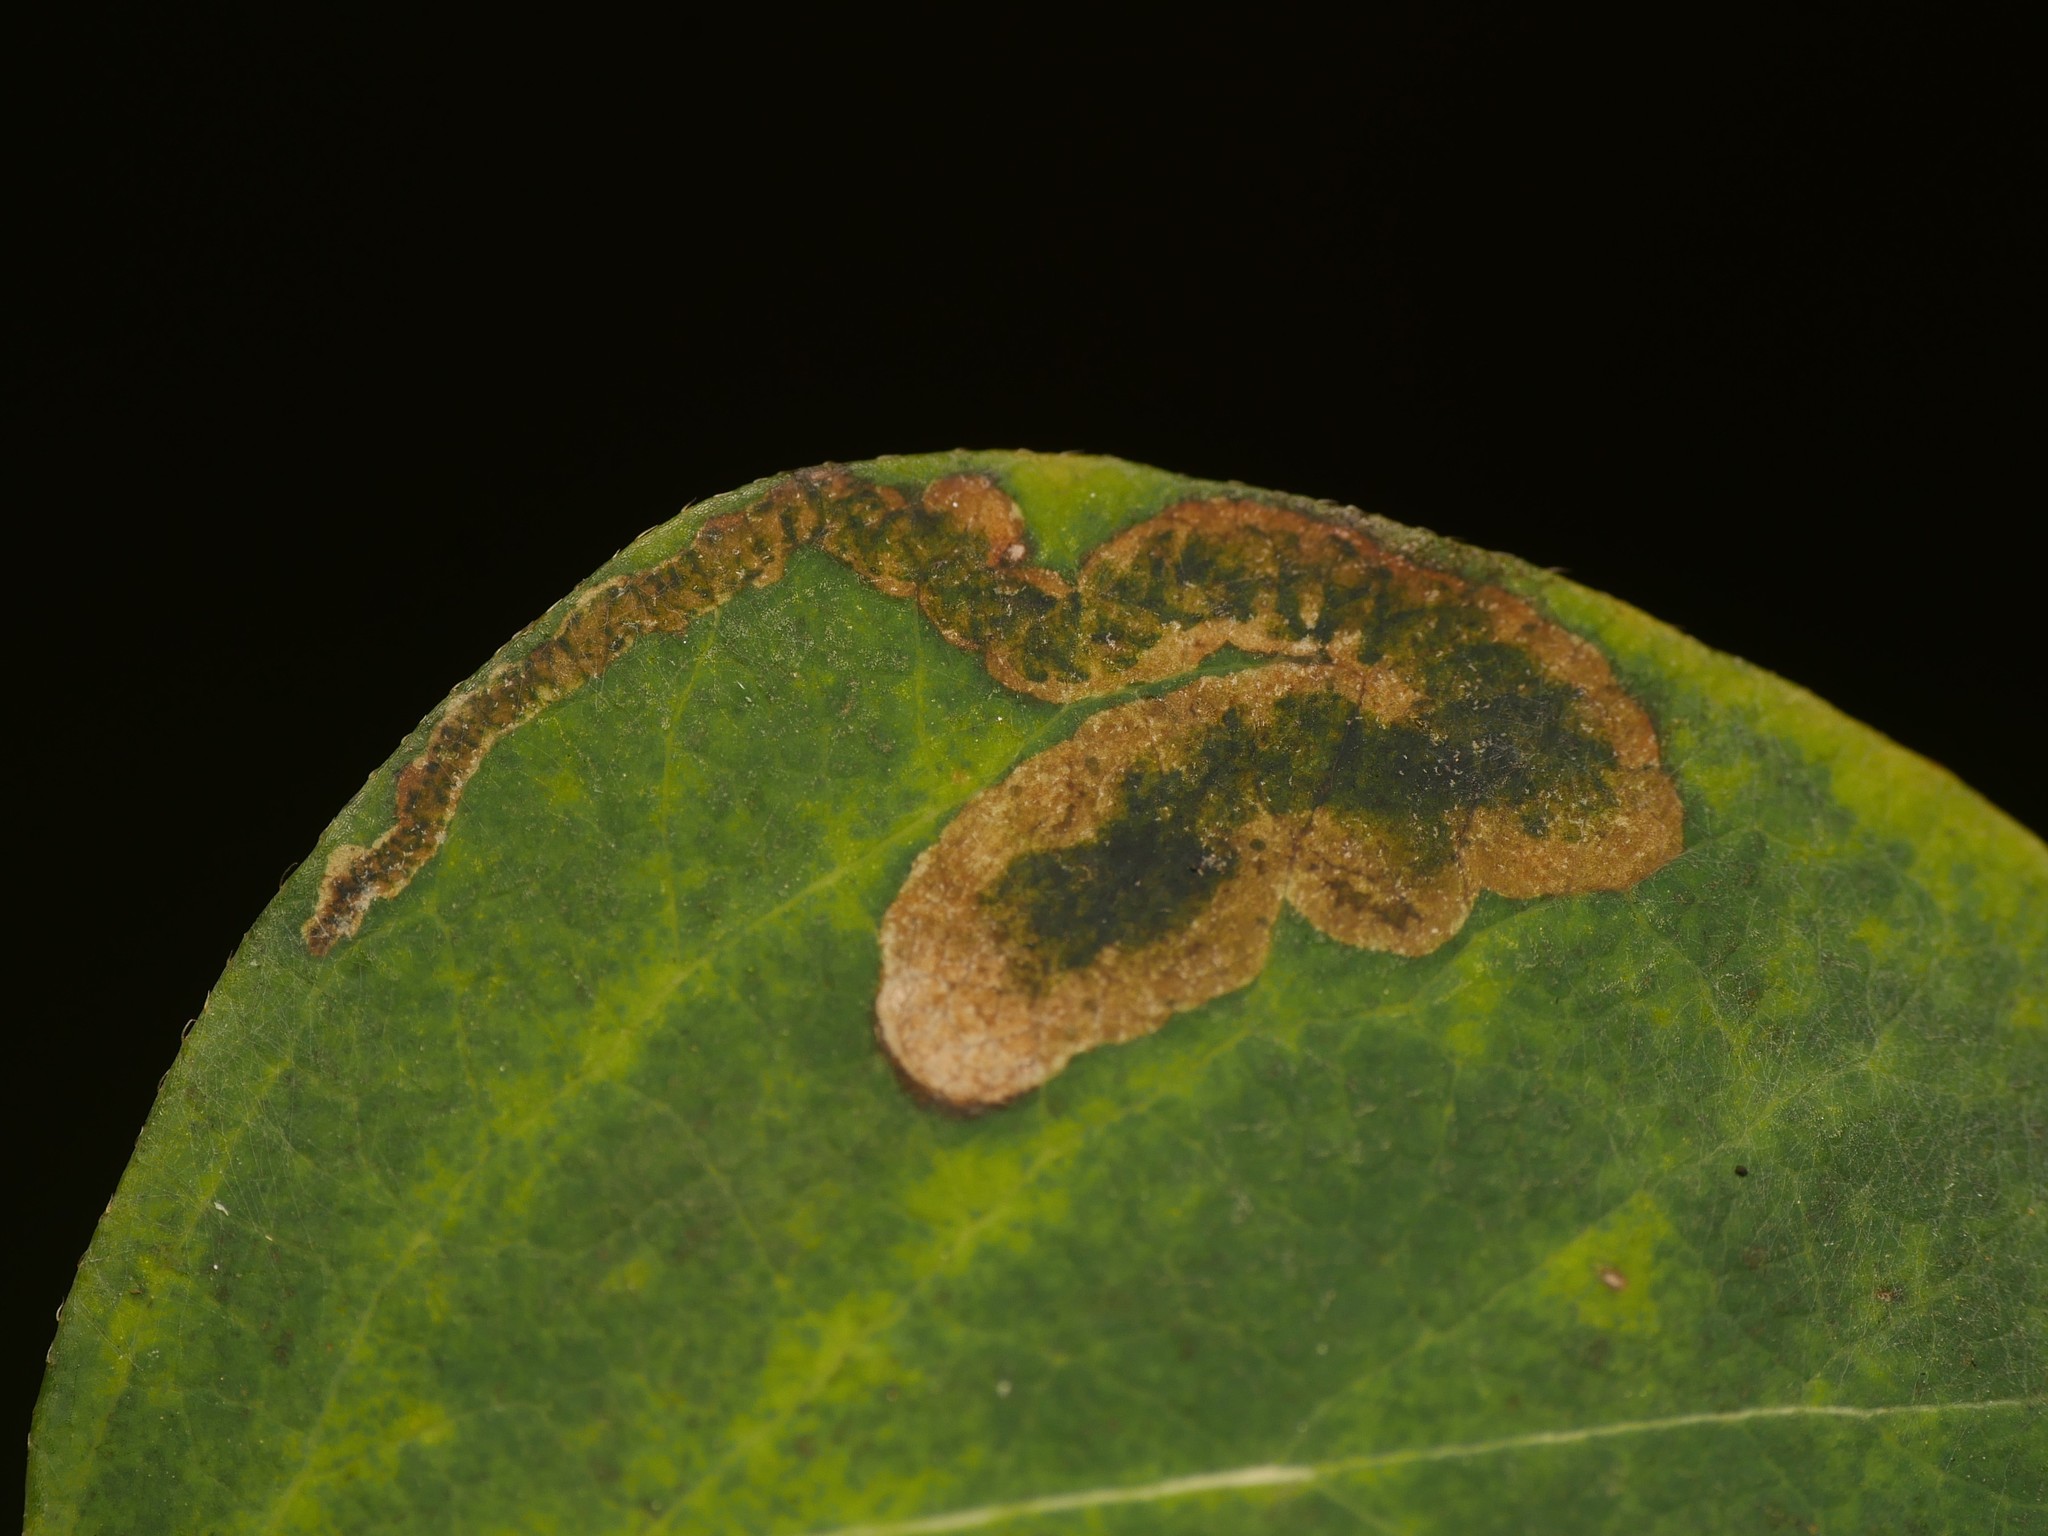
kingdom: Animalia
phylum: Arthropoda
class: Insecta
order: Diptera
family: Agromyzidae
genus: Aulagromyza
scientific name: Aulagromyza luteoscutellata
